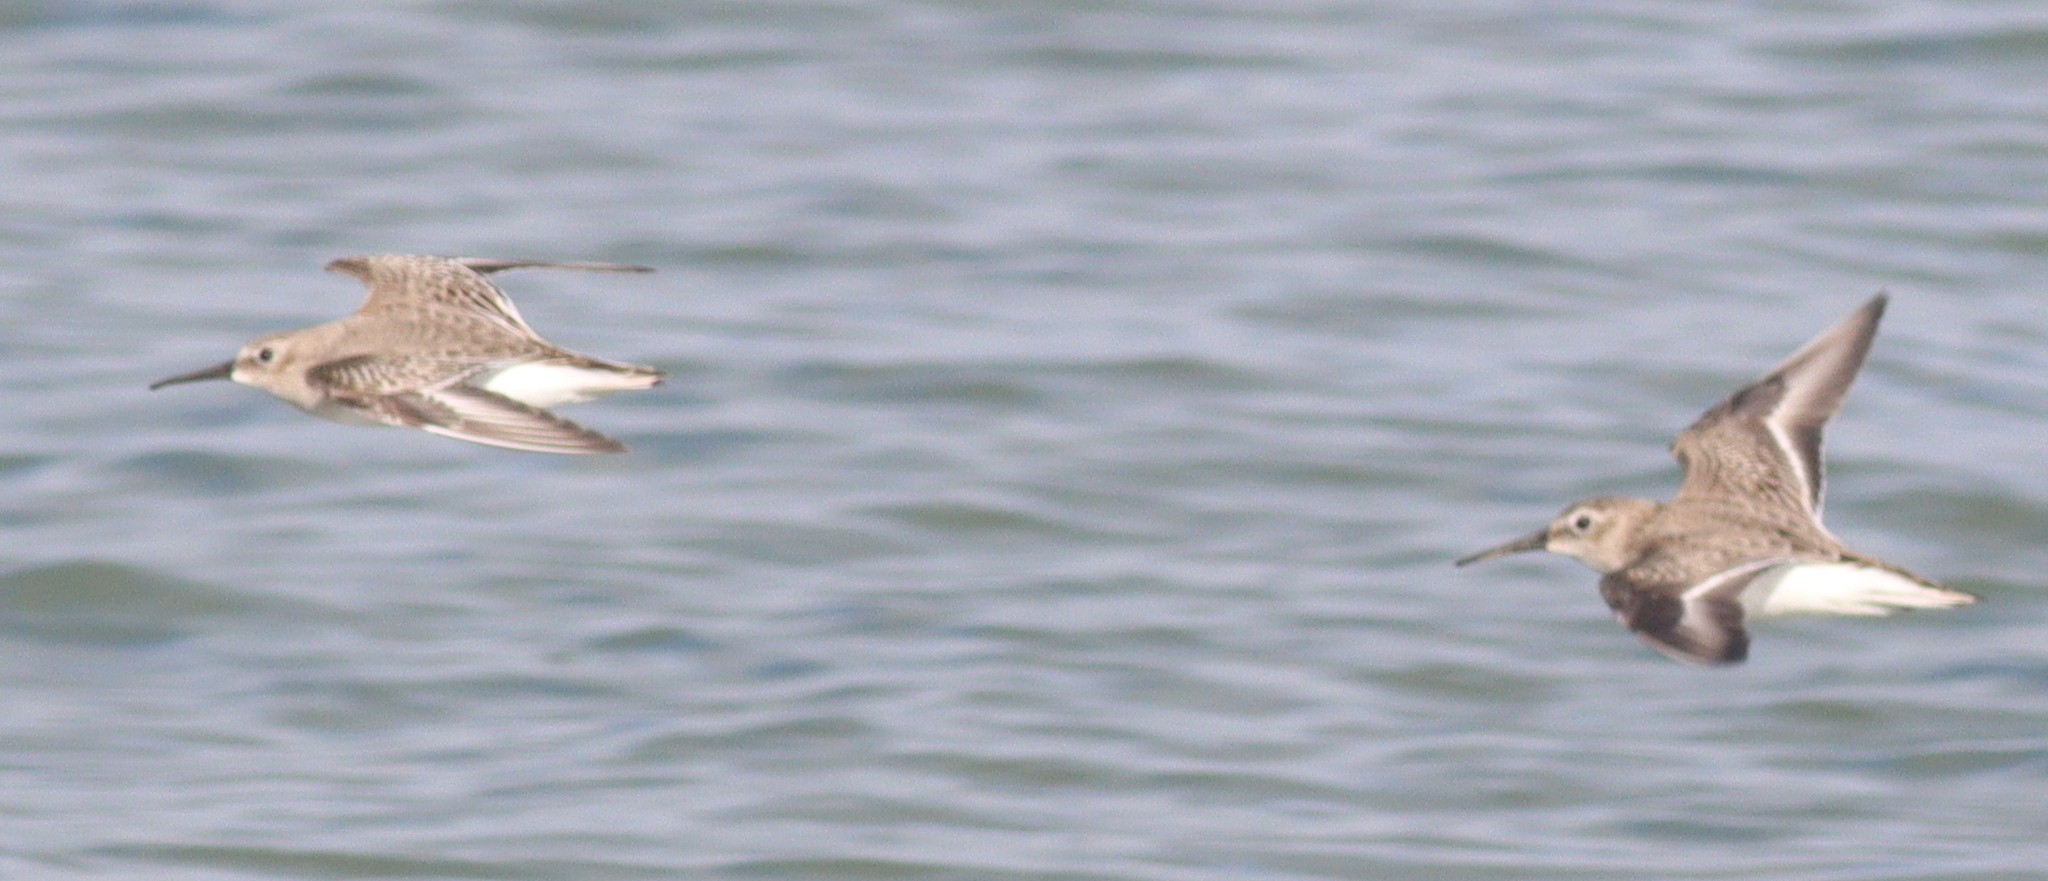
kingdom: Animalia
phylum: Chordata
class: Aves
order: Charadriiformes
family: Scolopacidae
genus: Calidris
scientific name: Calidris alpina
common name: Dunlin
